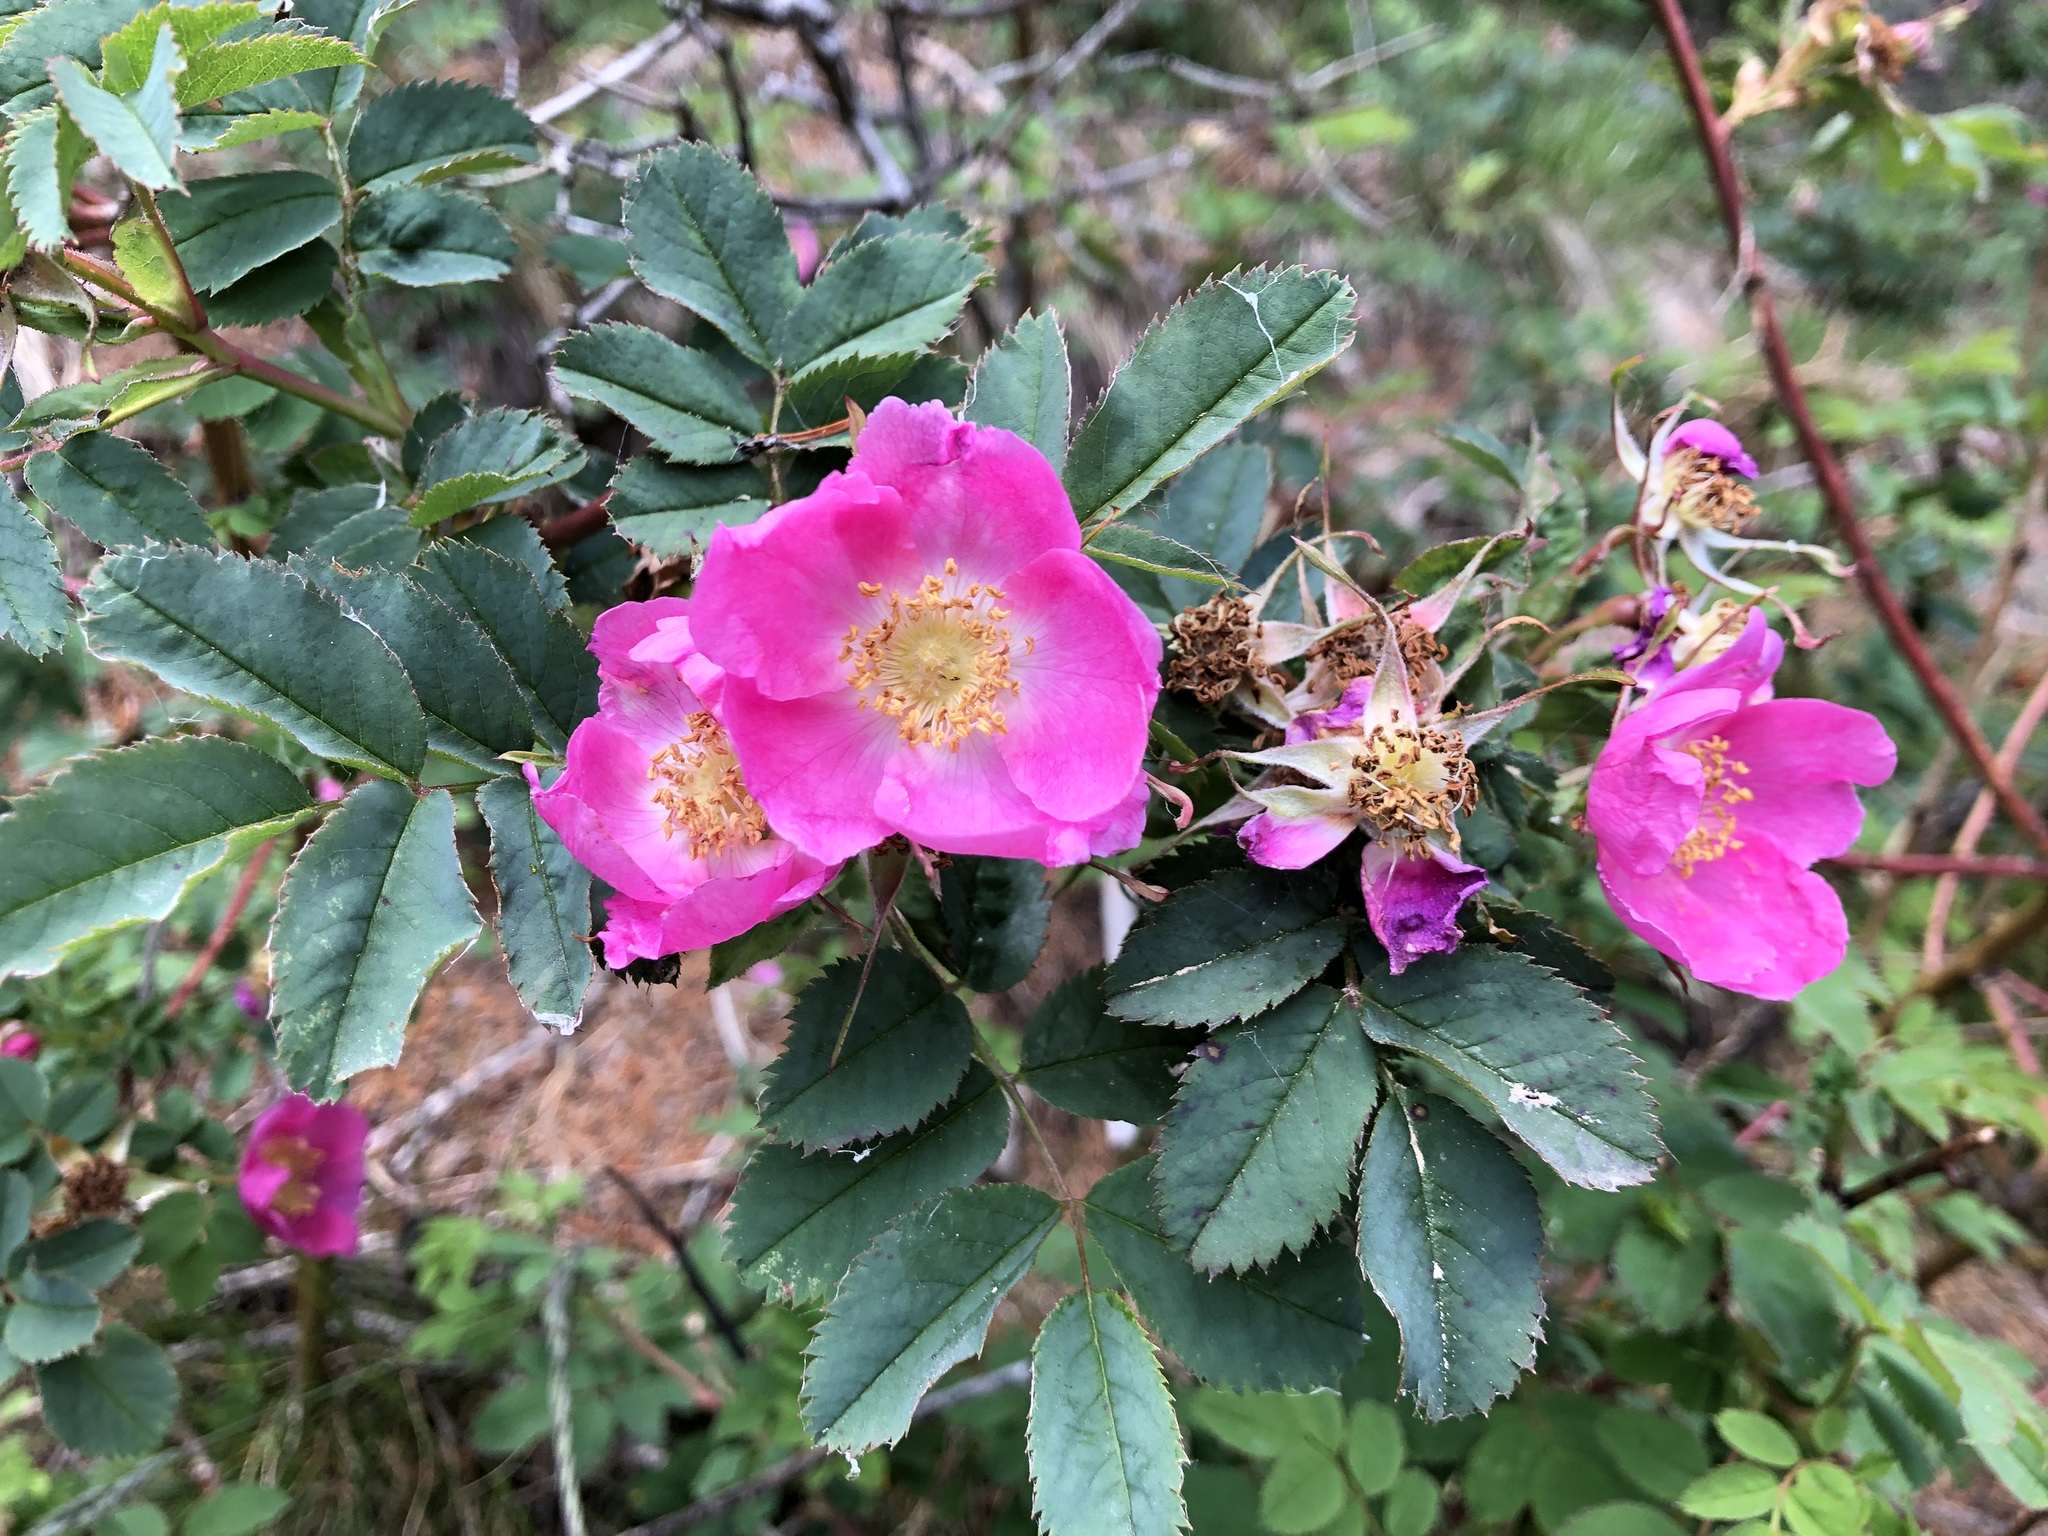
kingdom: Plantae
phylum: Tracheophyta
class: Magnoliopsida
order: Rosales
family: Rosaceae
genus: Rosa
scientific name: Rosa glauca
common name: Redleaf rose
